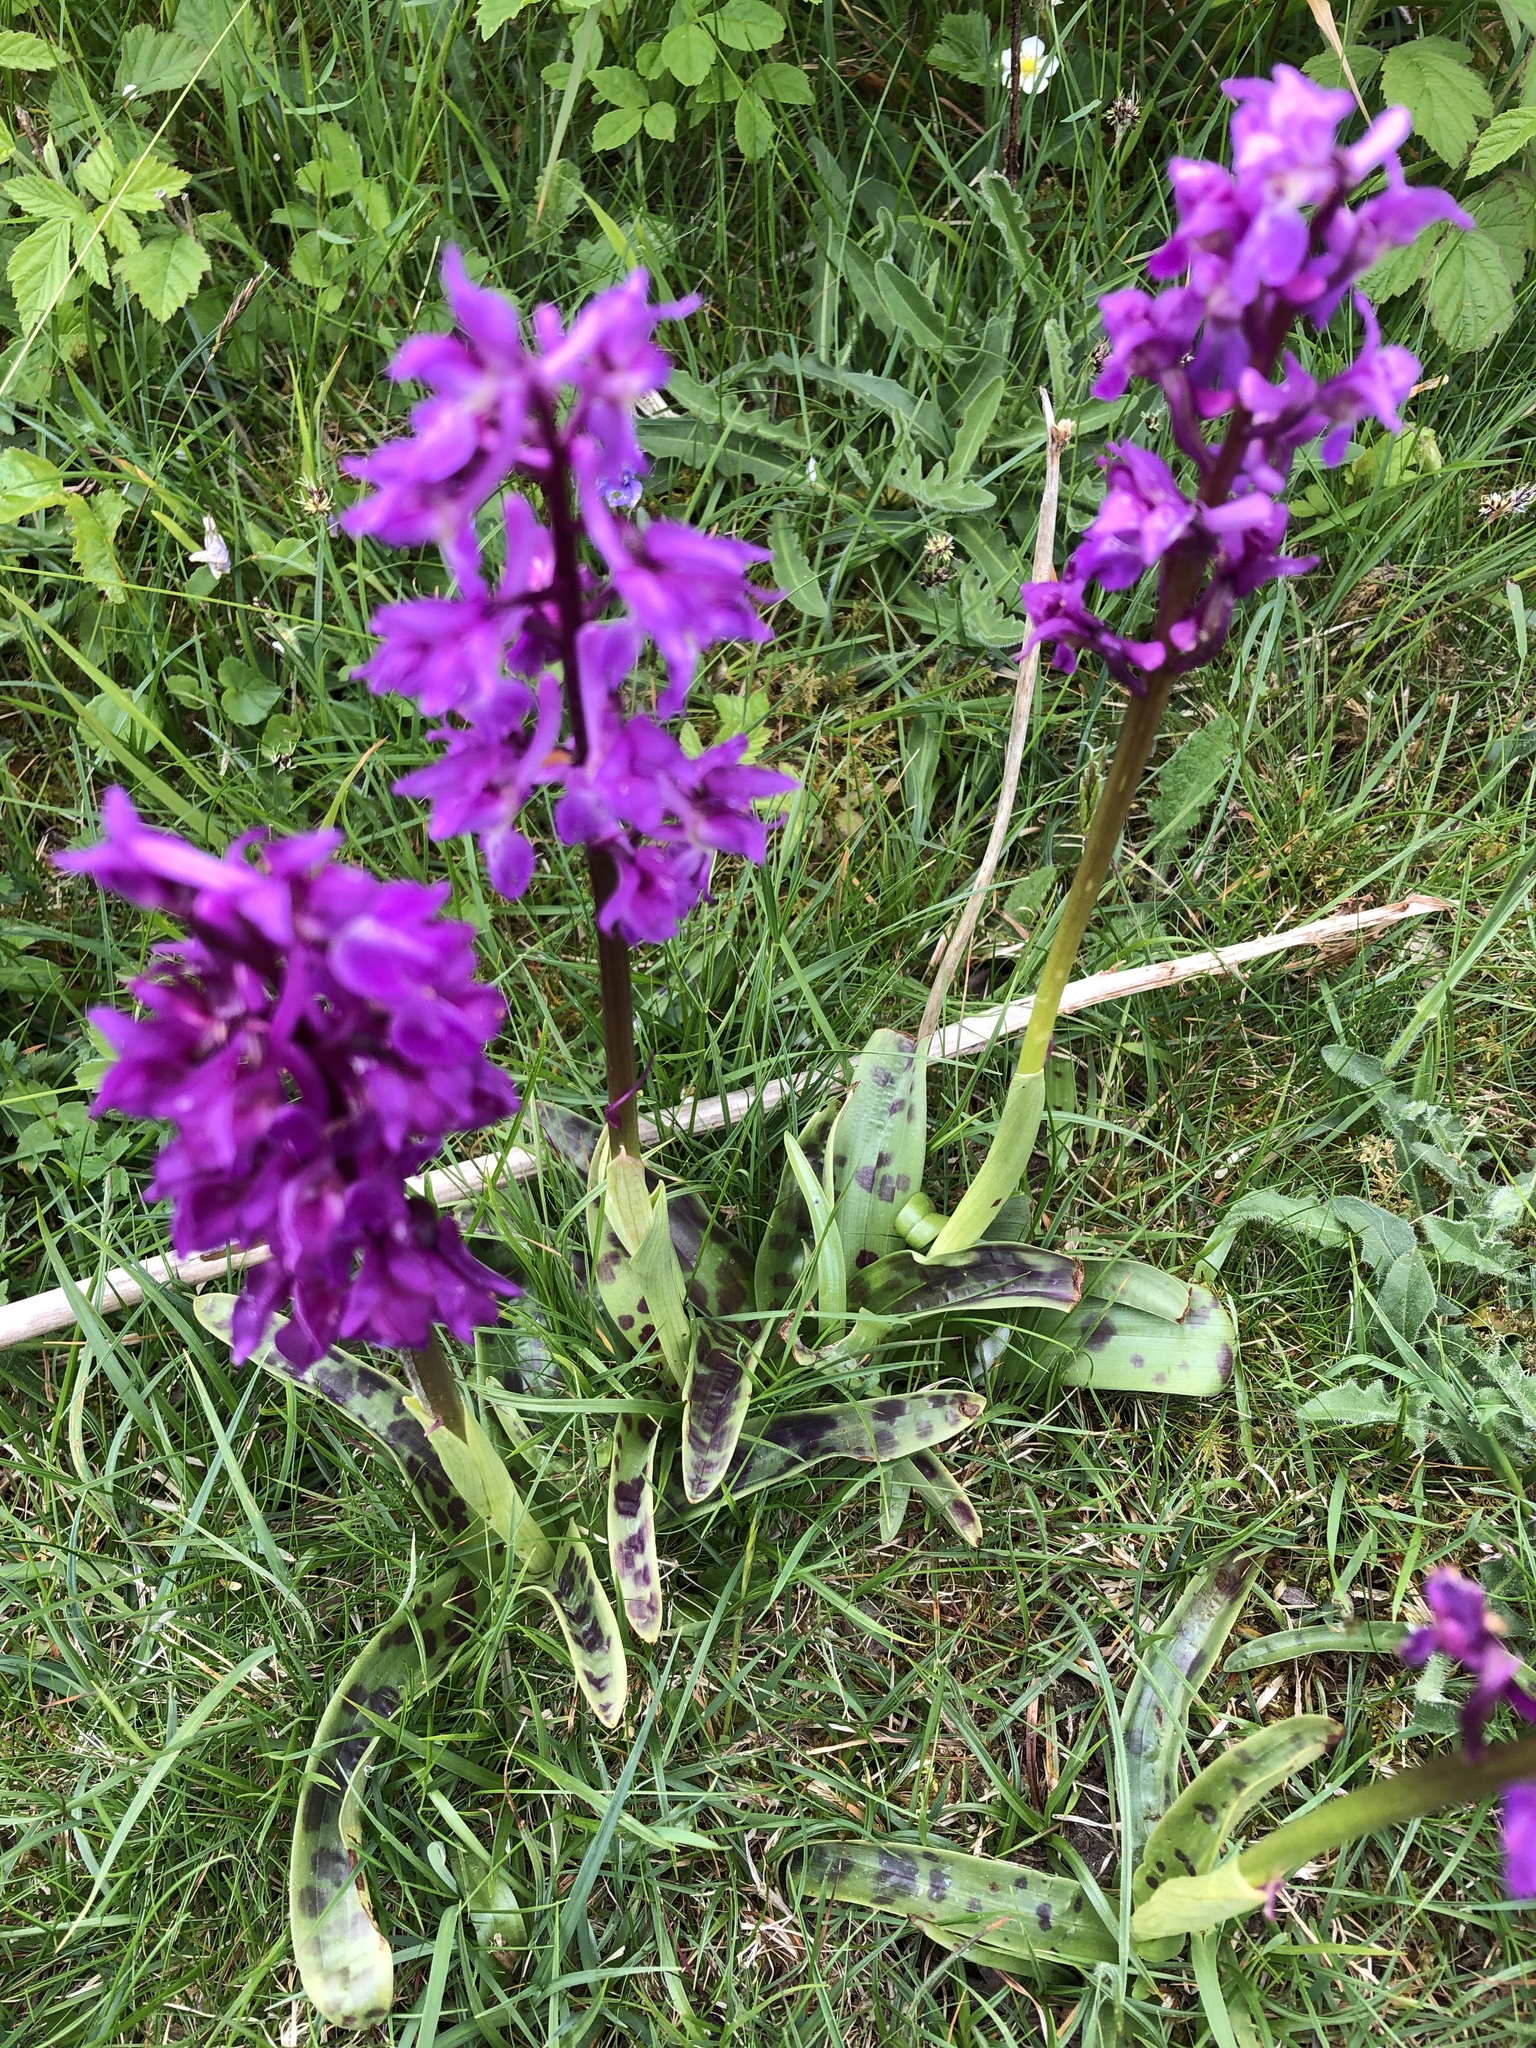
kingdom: Plantae
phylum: Tracheophyta
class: Liliopsida
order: Asparagales
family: Orchidaceae
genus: Orchis
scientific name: Orchis mascula
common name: Early-purple orchid
